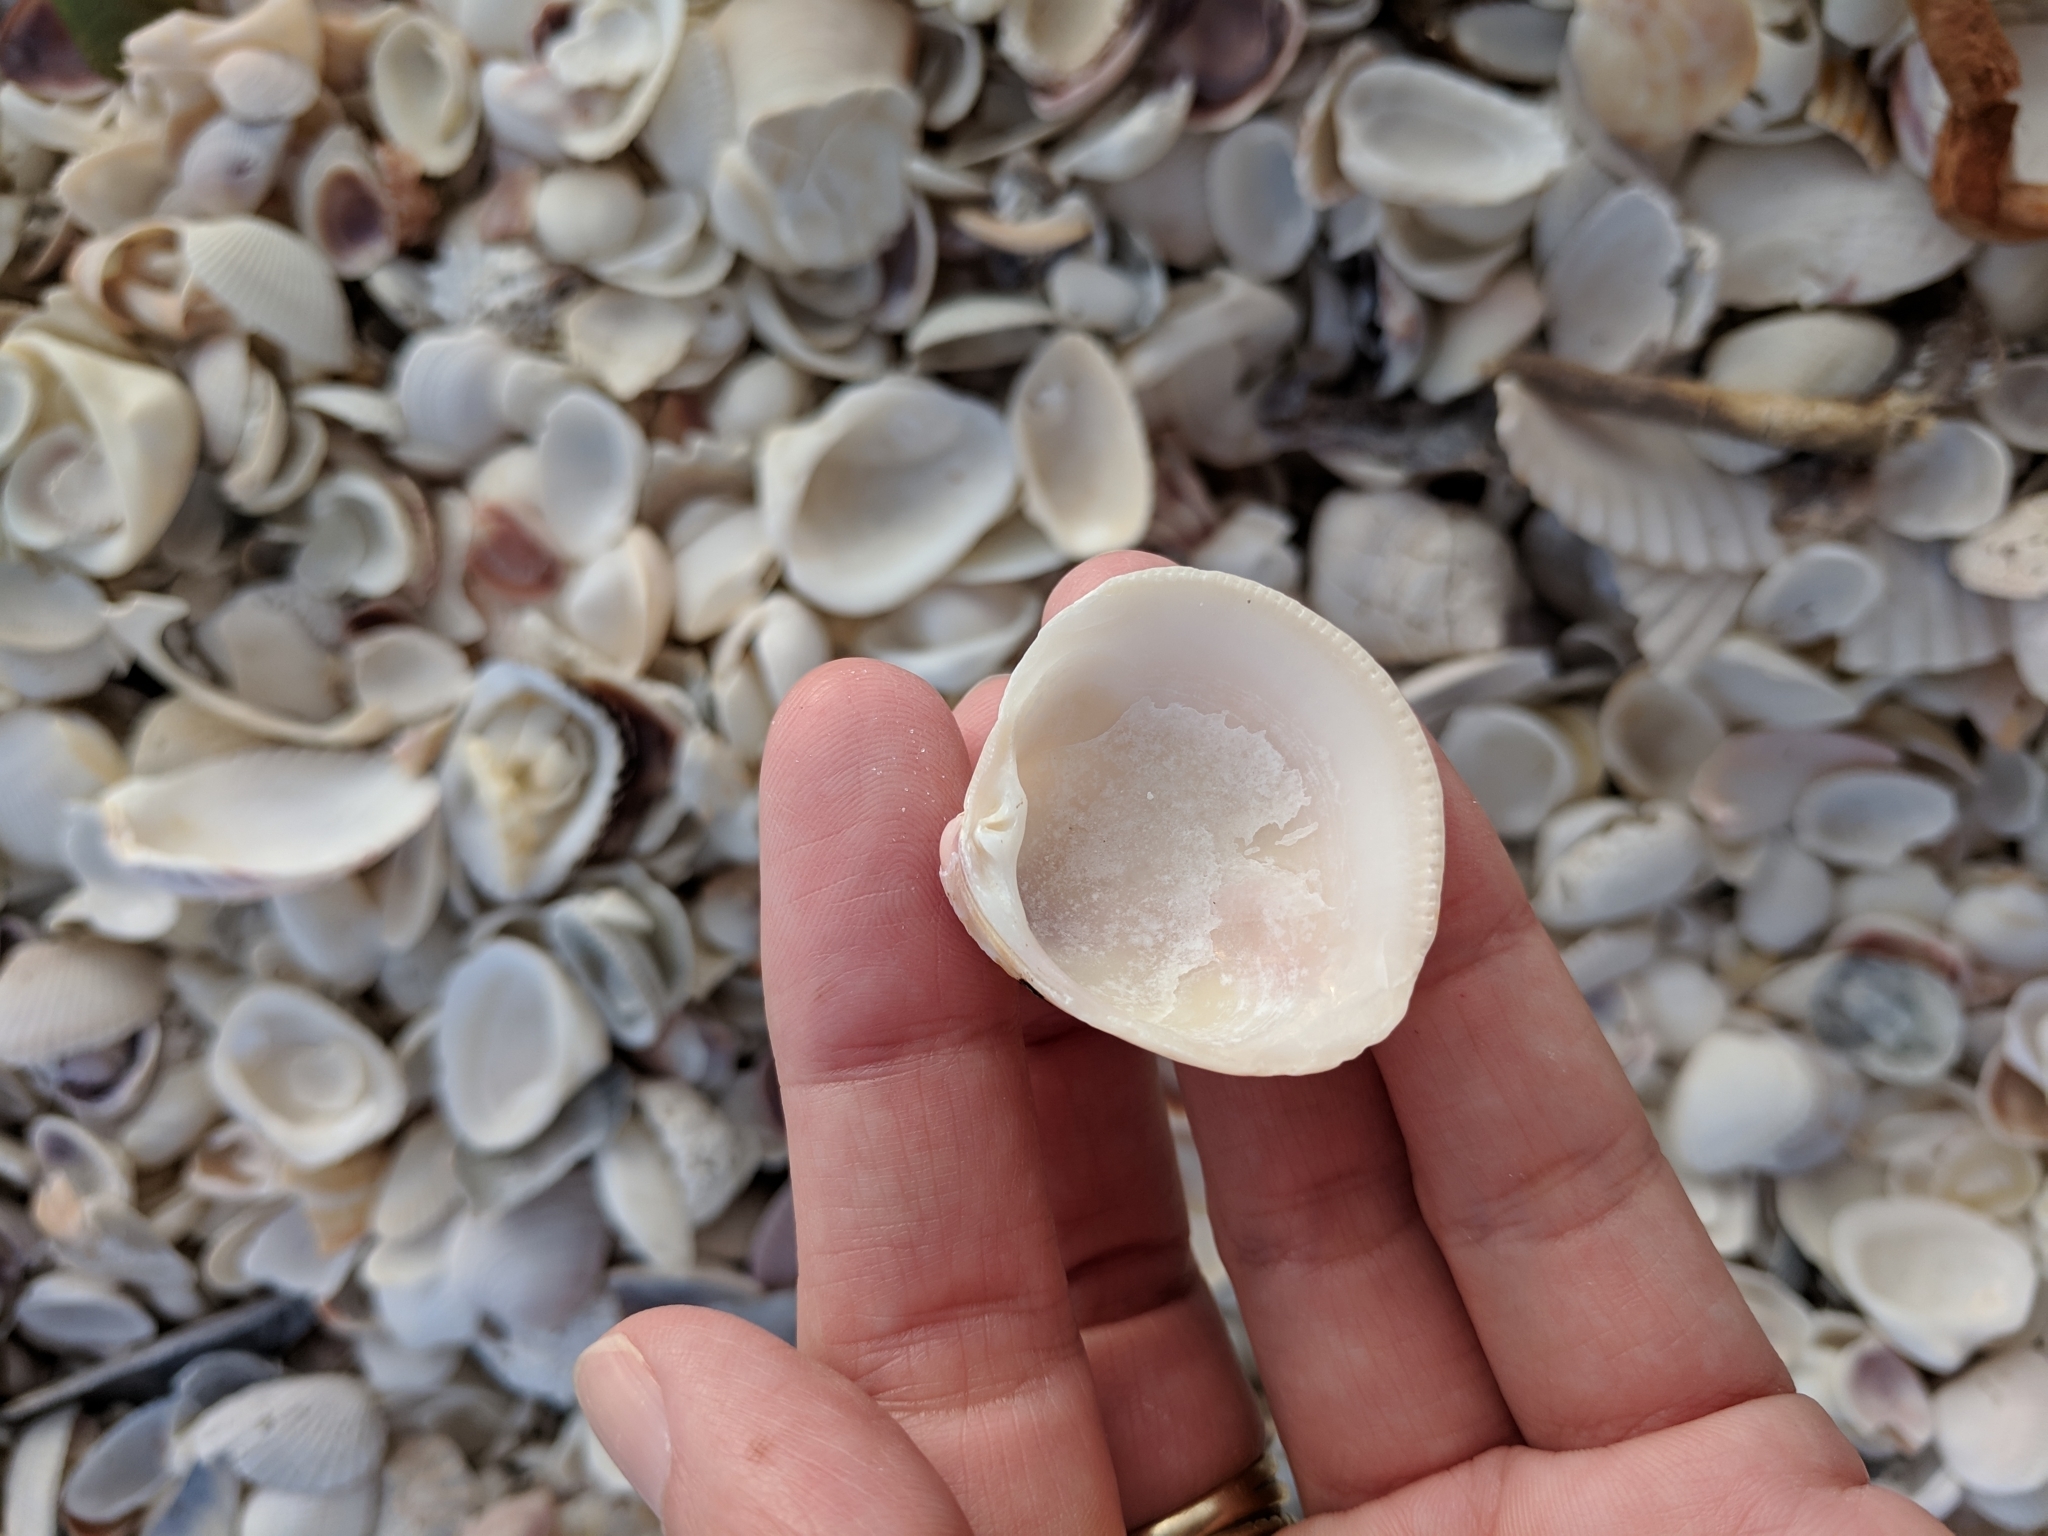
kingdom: Animalia
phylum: Mollusca
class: Bivalvia
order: Venerida
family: Veneridae
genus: Chionopsis
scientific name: Chionopsis intapurpurea
